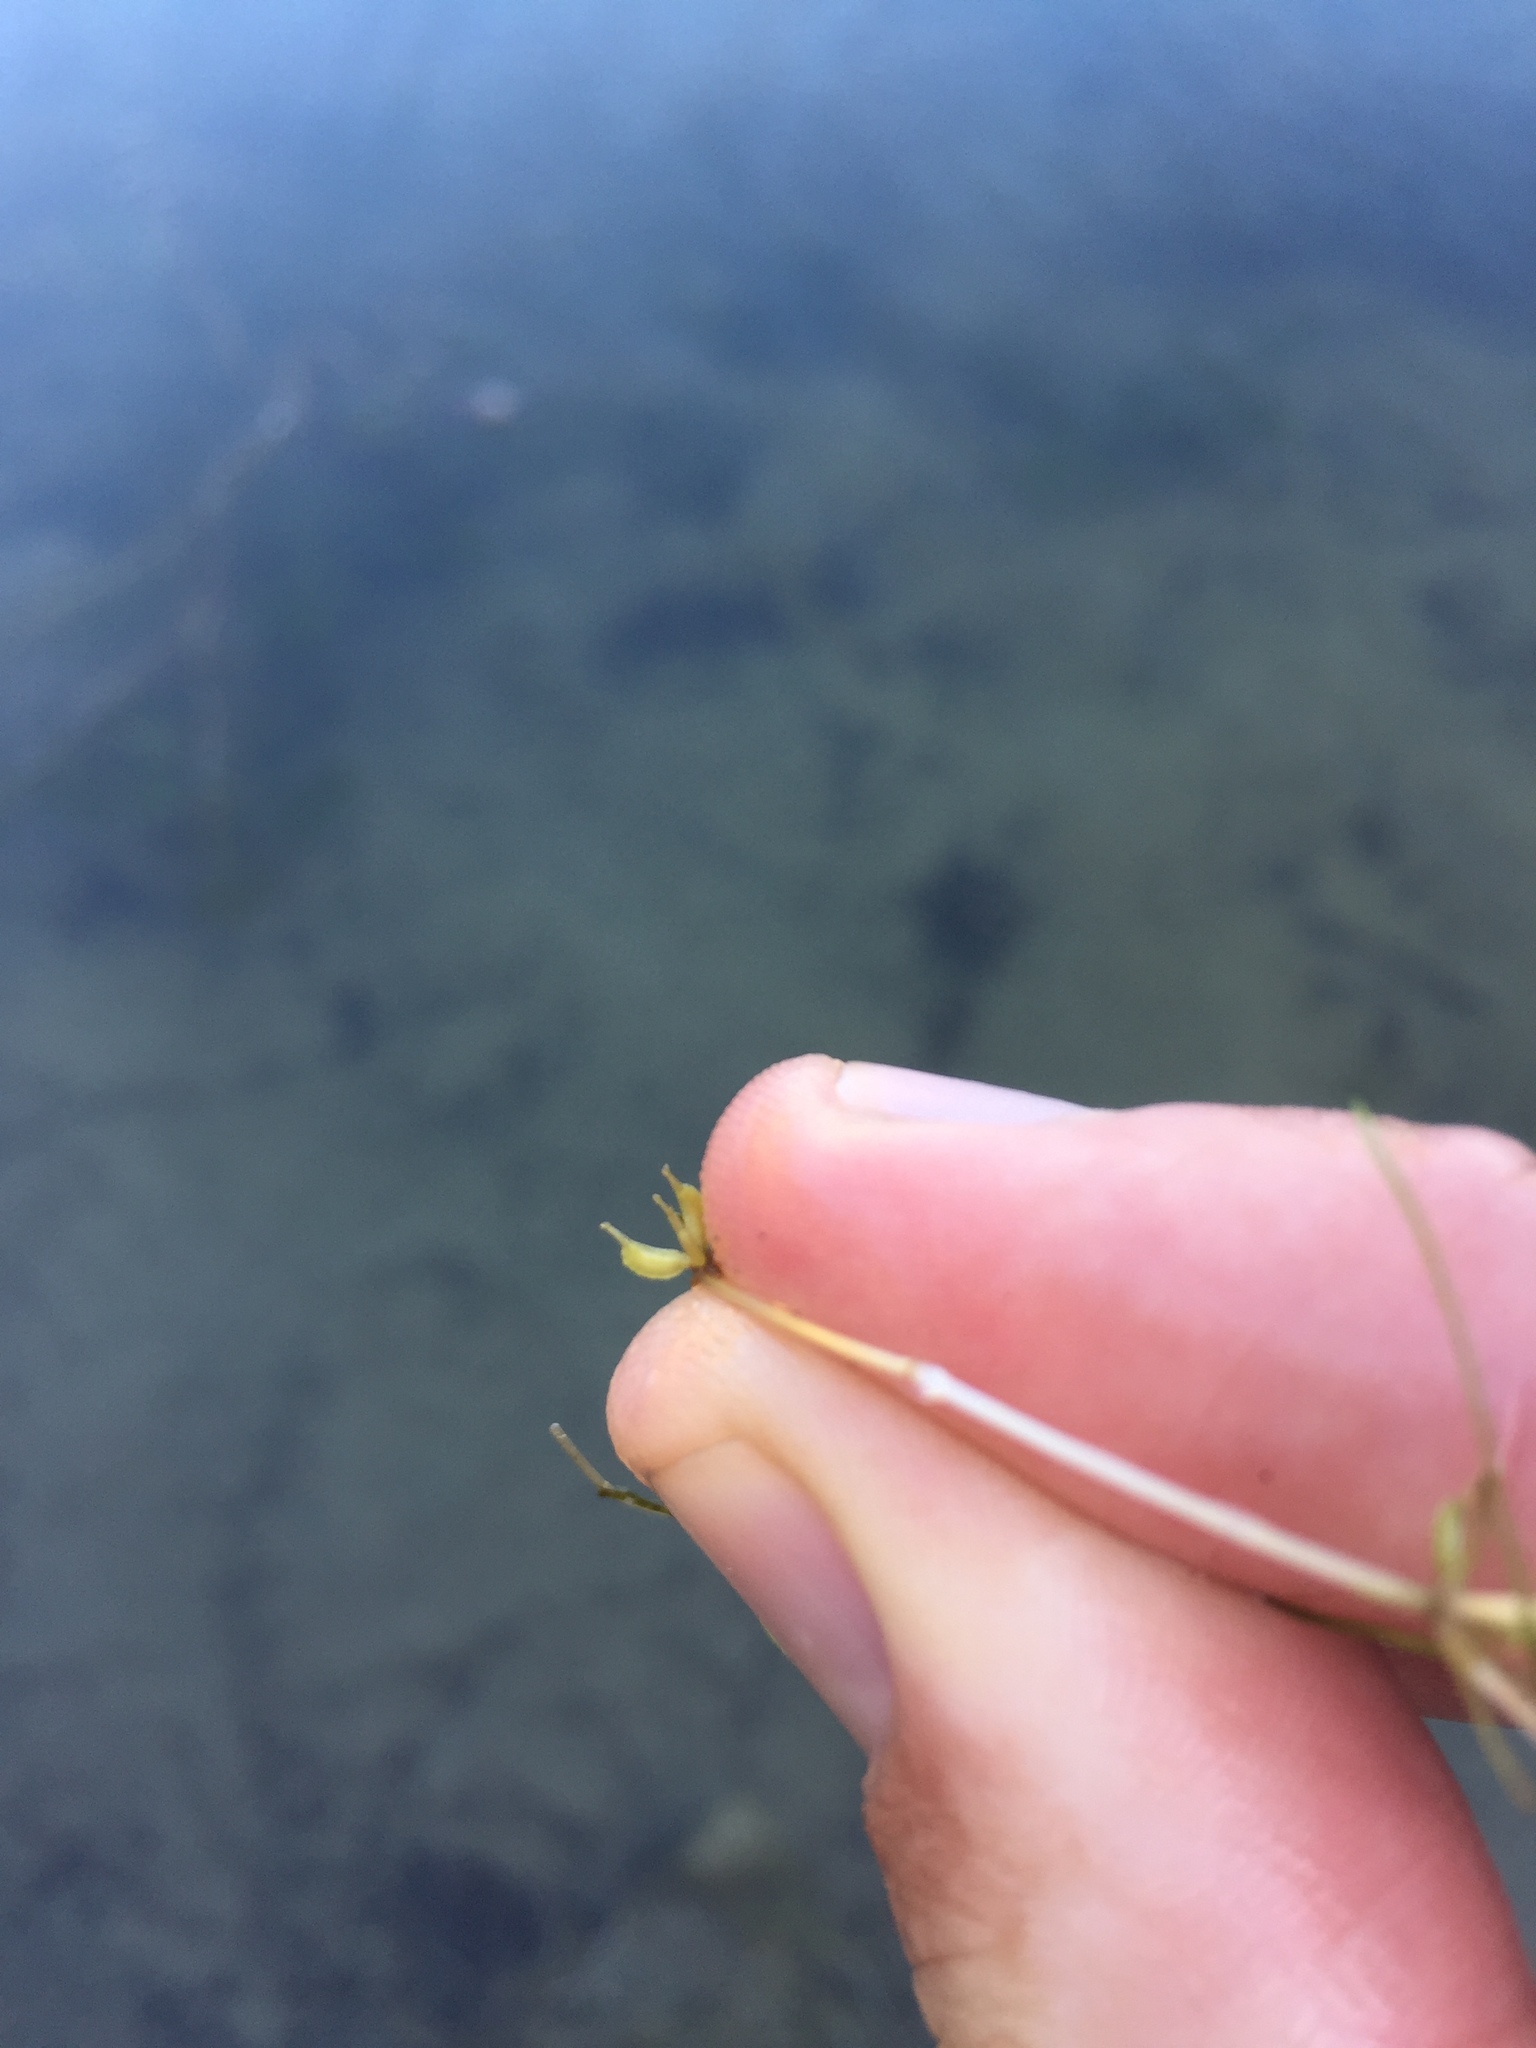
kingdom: Plantae
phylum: Tracheophyta
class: Liliopsida
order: Alismatales
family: Potamogetonaceae
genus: Zannichellia
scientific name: Zannichellia palustris
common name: Horned pondweed
